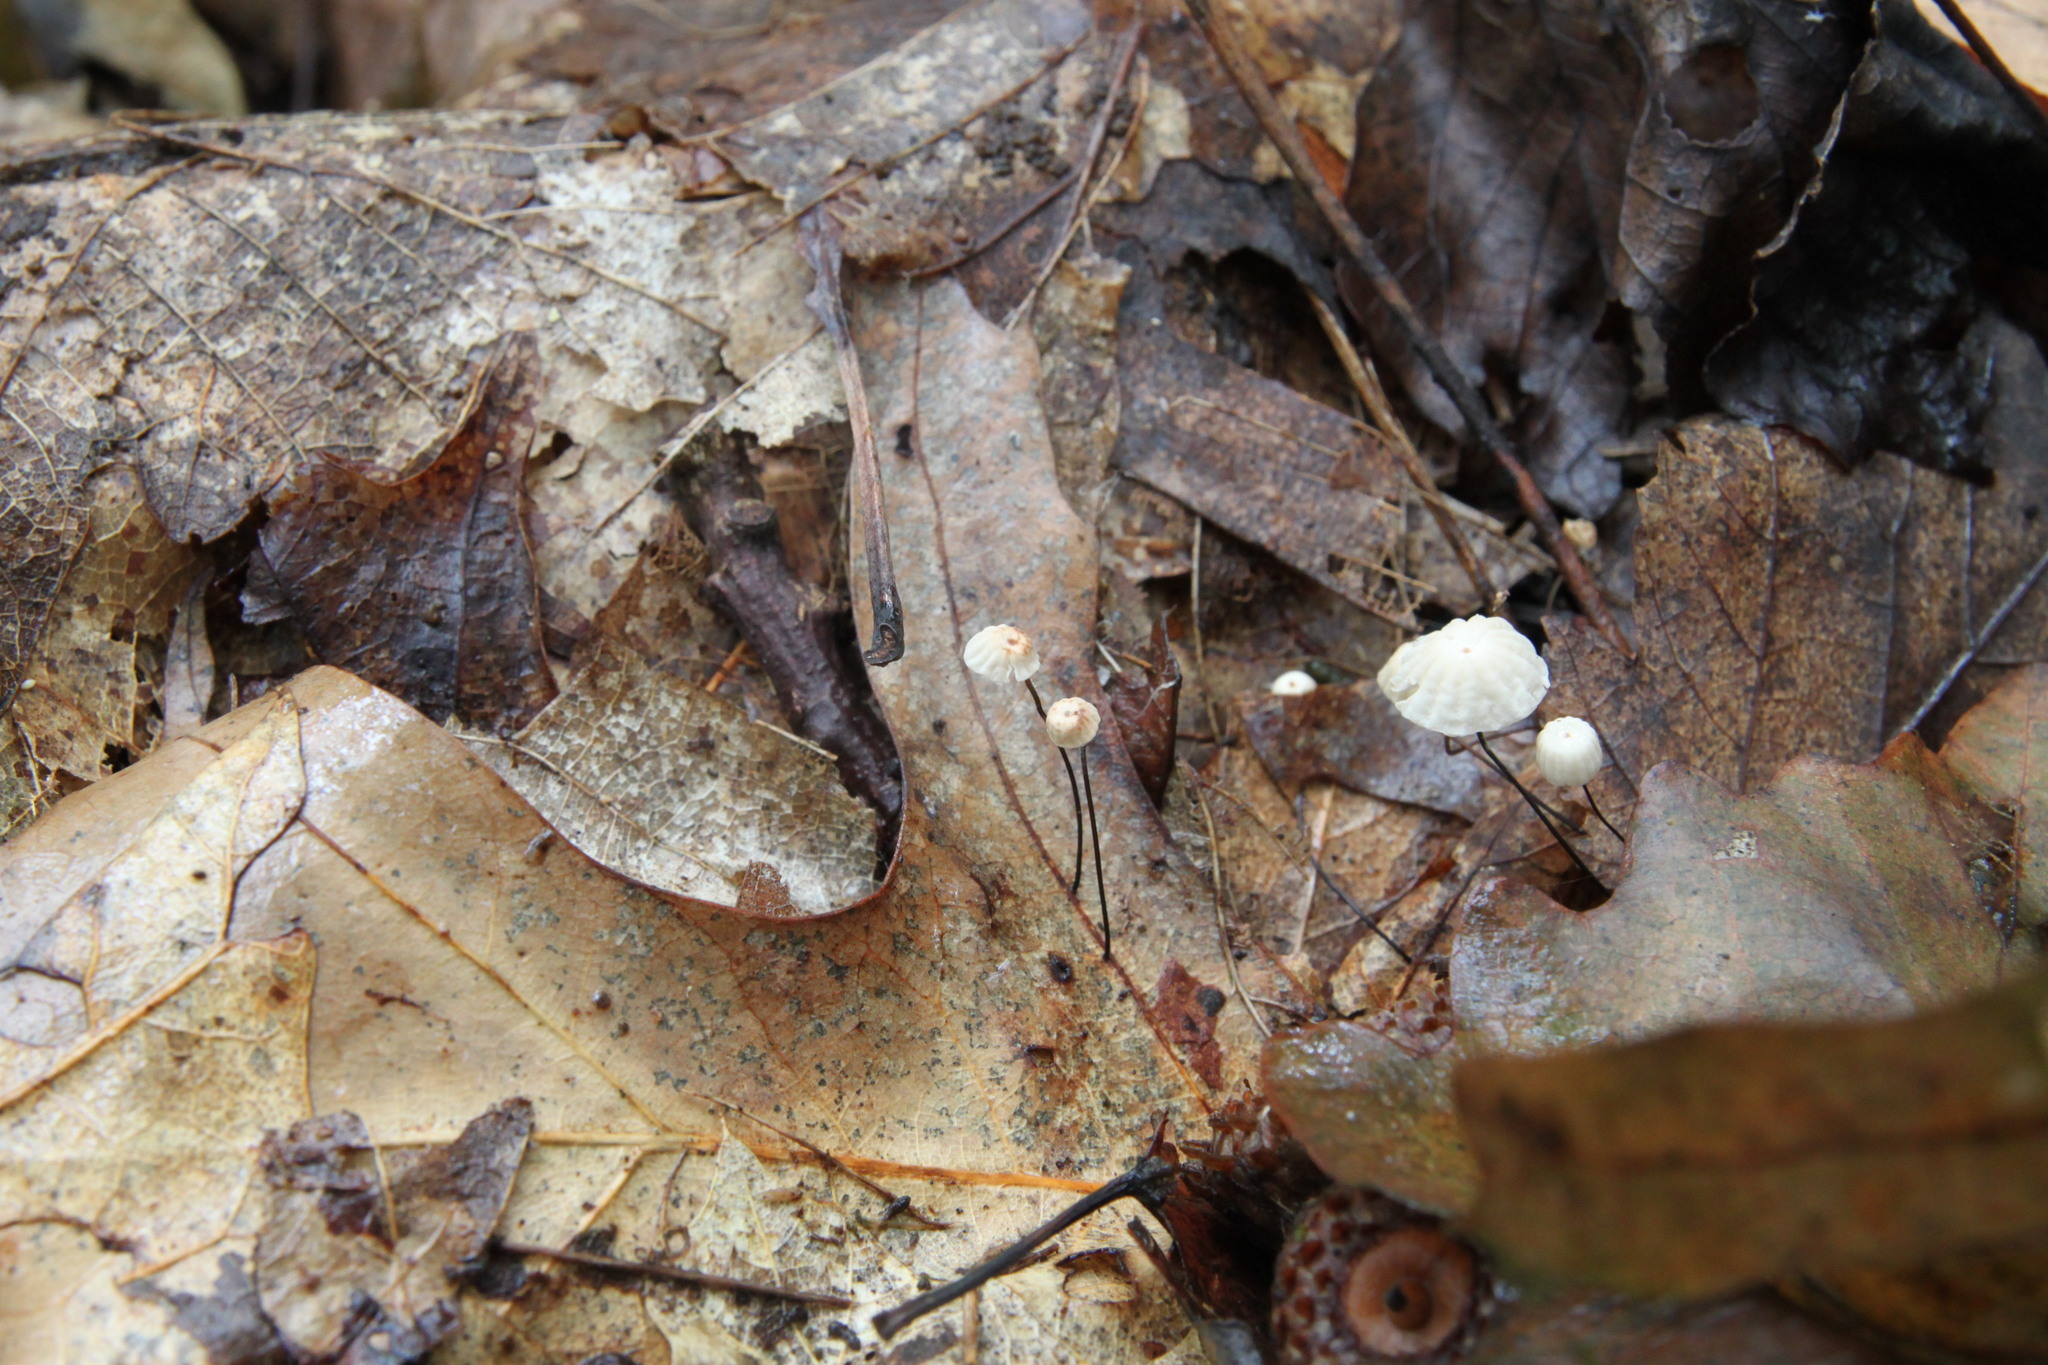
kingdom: Fungi
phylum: Basidiomycota
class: Agaricomycetes
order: Agaricales
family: Marasmiaceae
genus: Marasmius
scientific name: Marasmius capillaris
